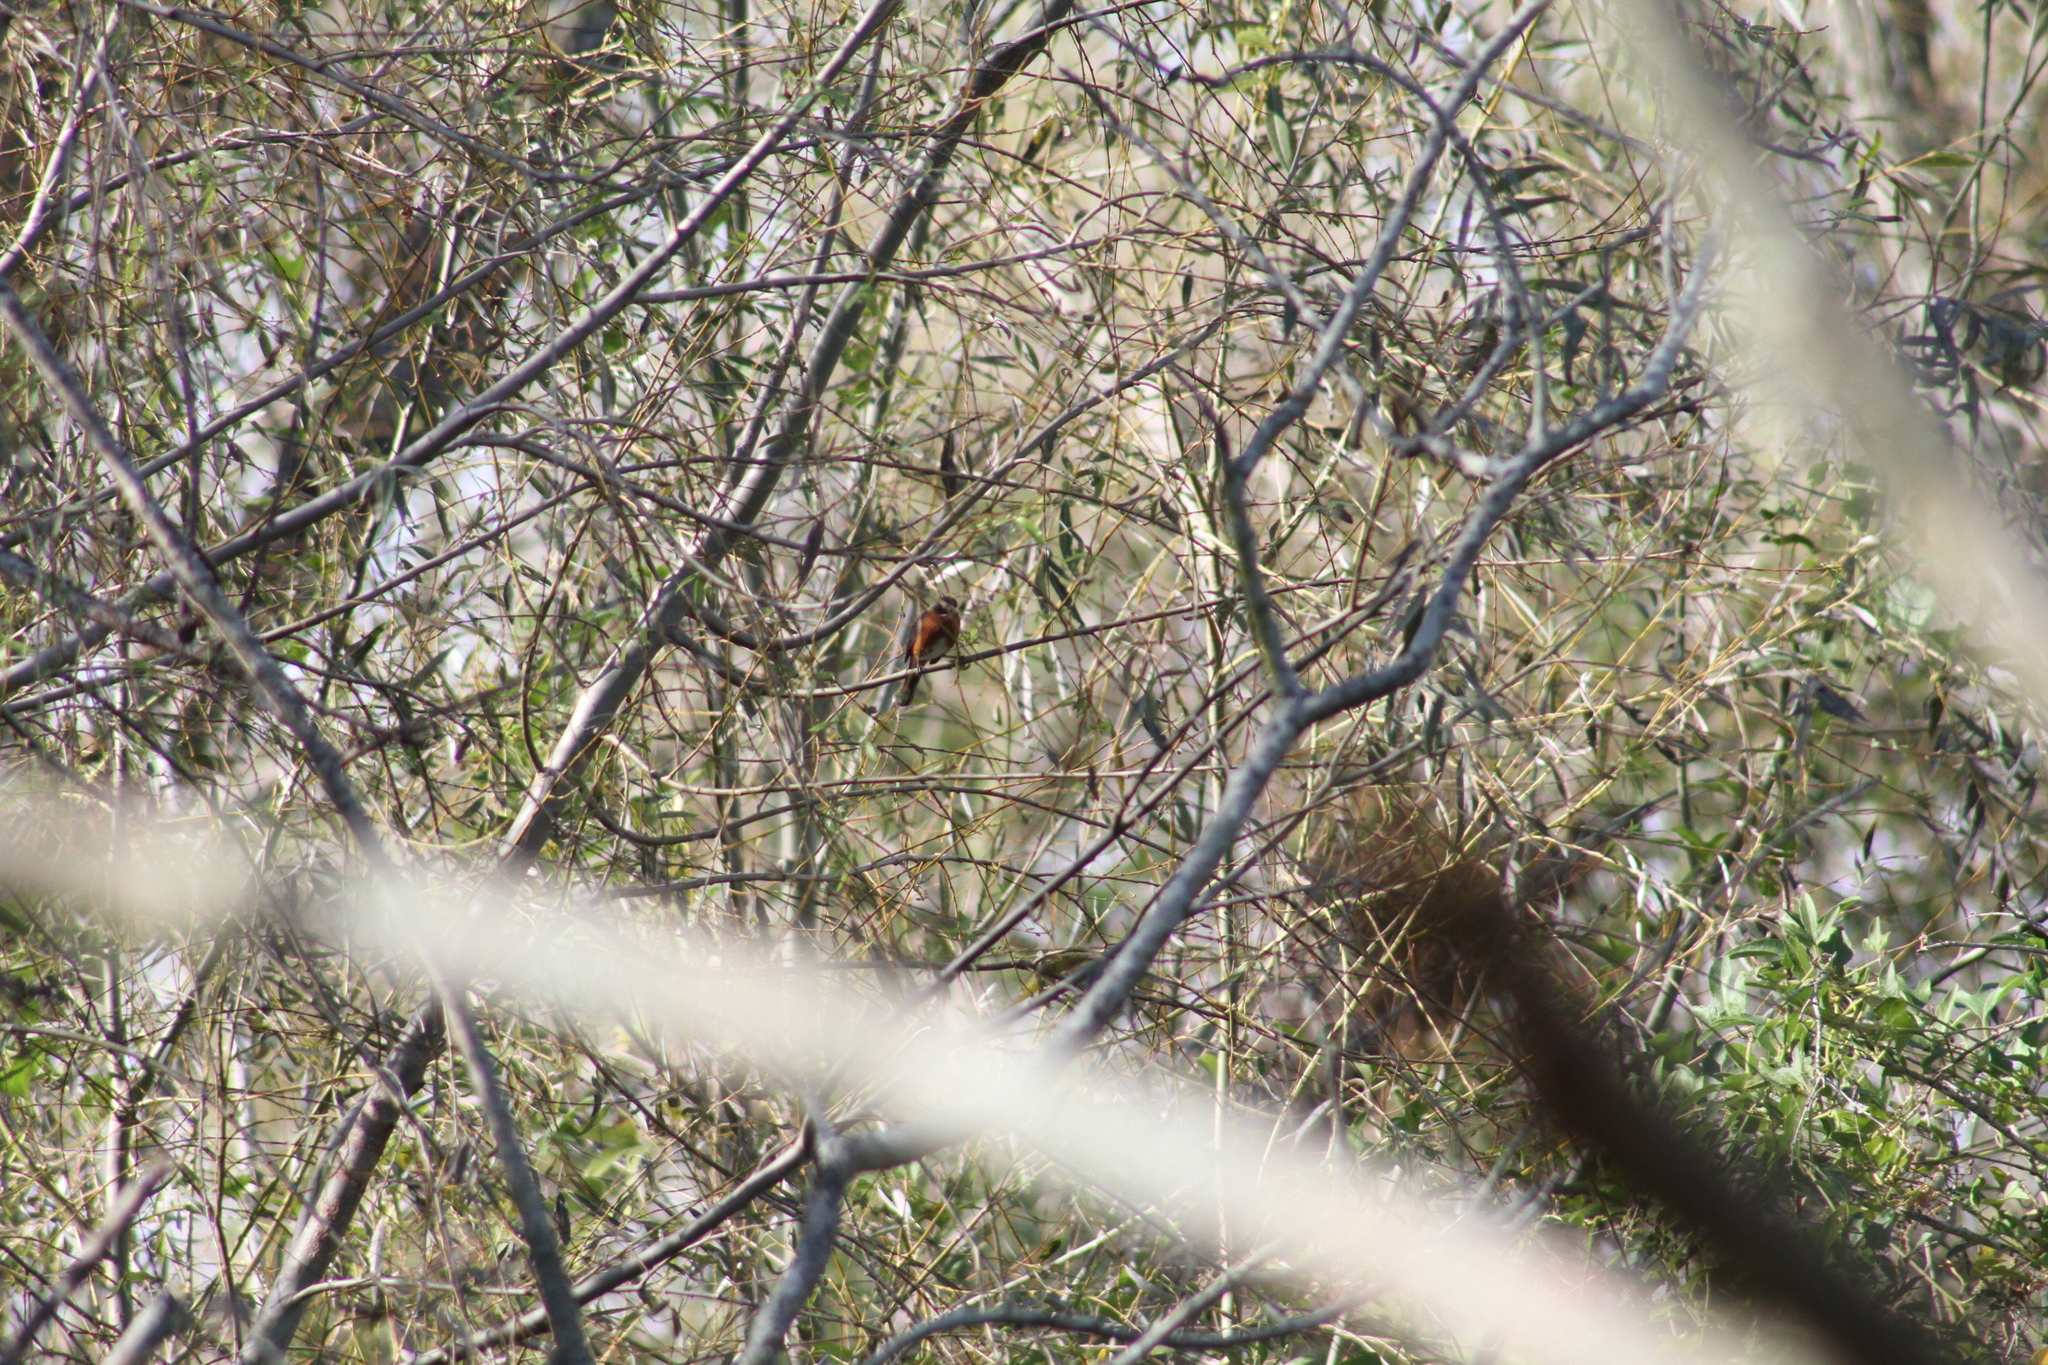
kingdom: Animalia
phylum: Chordata
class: Aves
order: Passeriformes
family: Thraupidae
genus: Poospiza
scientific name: Poospiza nigrorufa
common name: Black-and-rufous warbling finch
